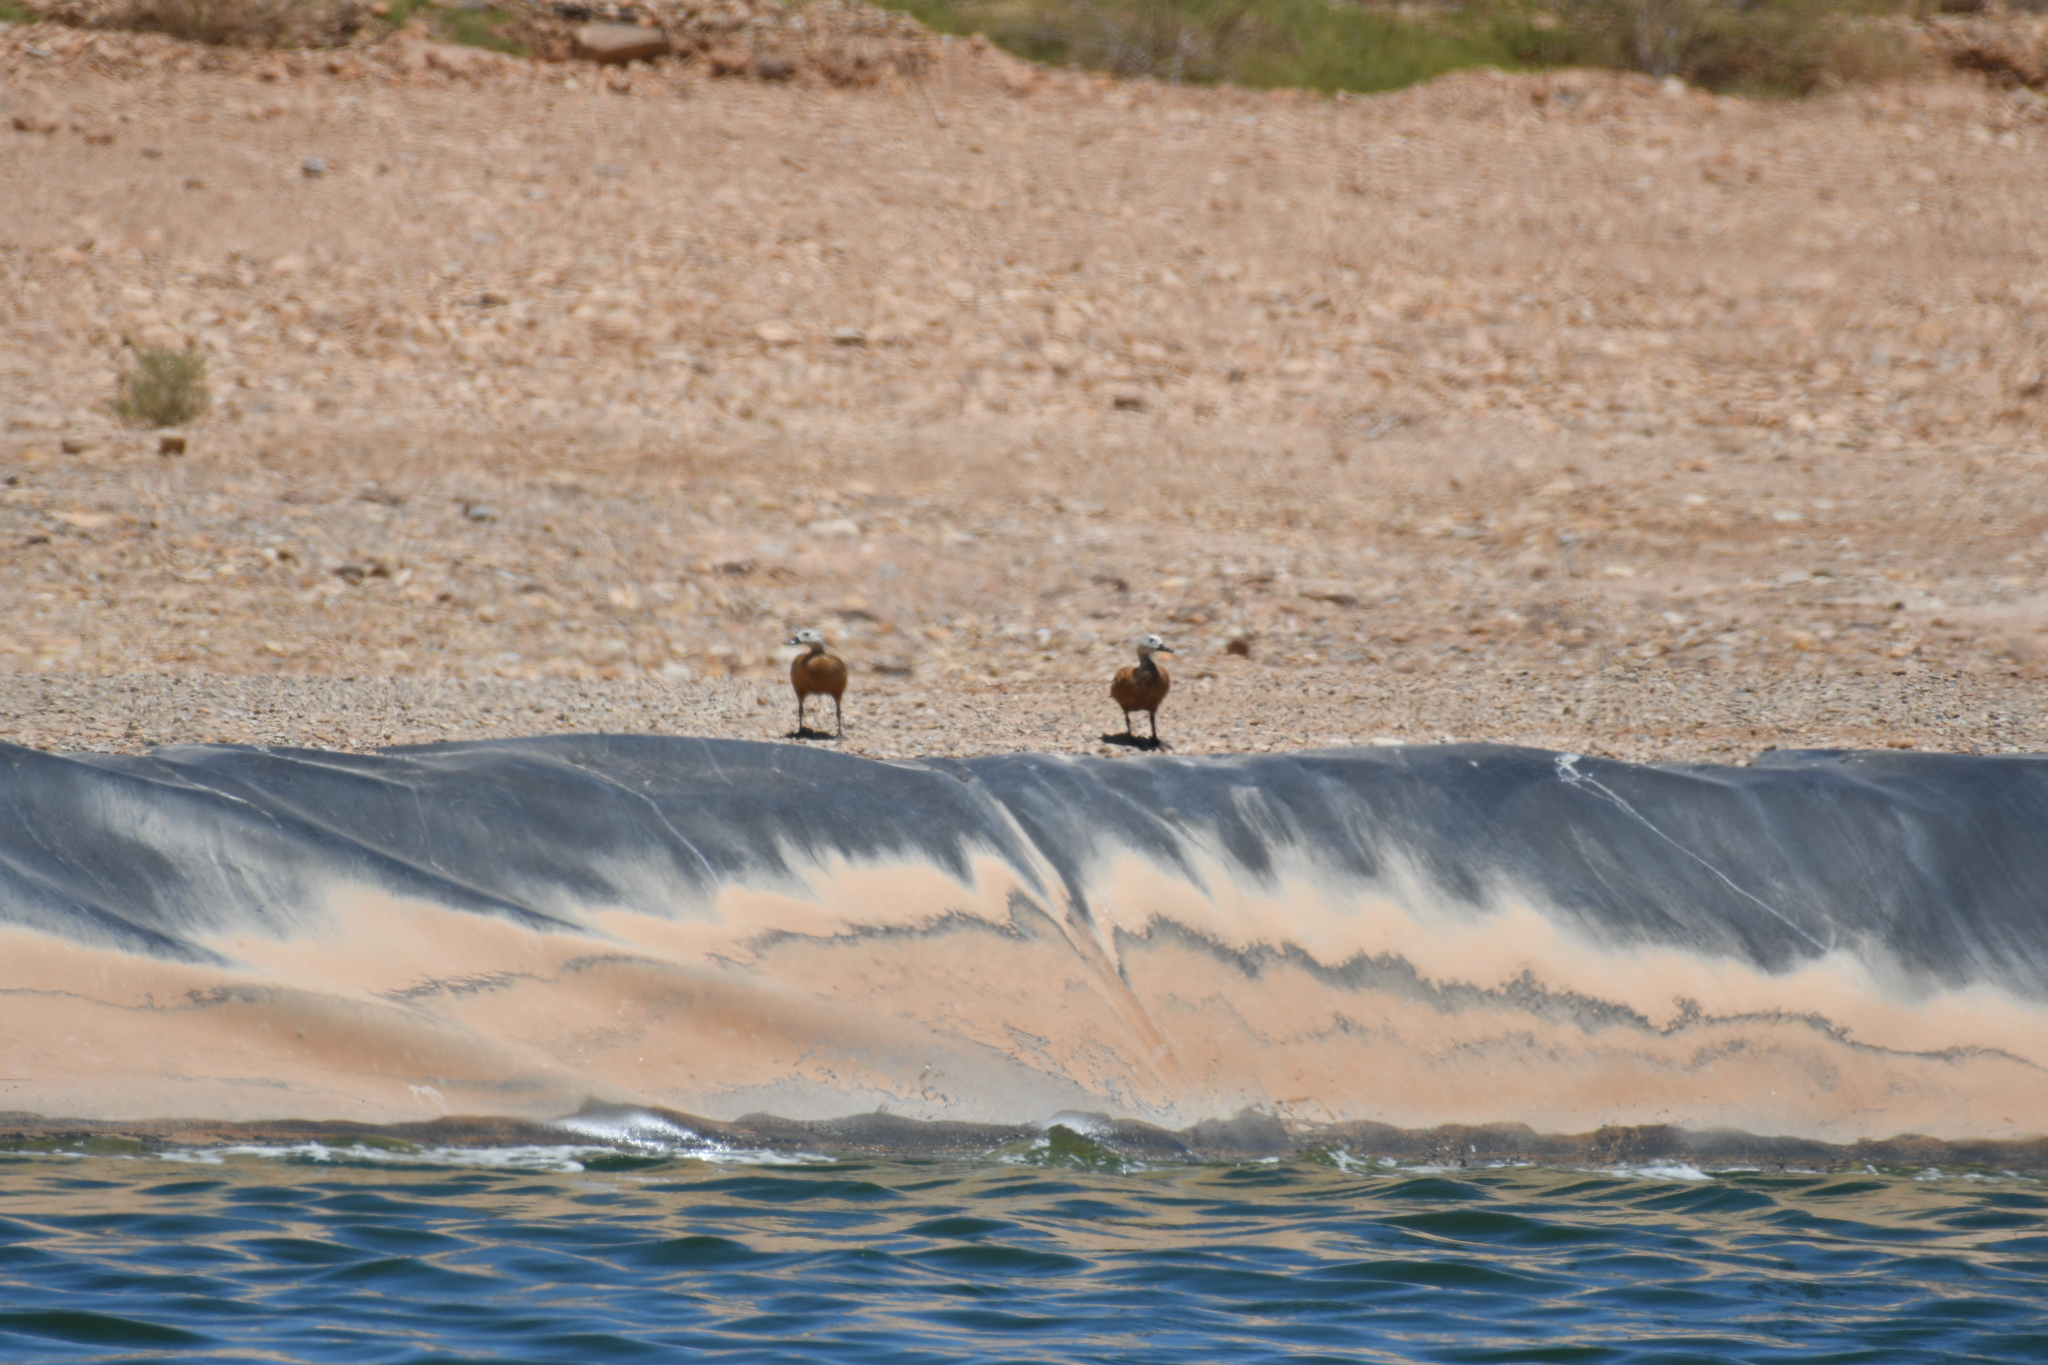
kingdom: Animalia
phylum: Chordata
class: Aves
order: Anseriformes
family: Anatidae
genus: Tadorna
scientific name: Tadorna ferruginea
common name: Ruddy shelduck
